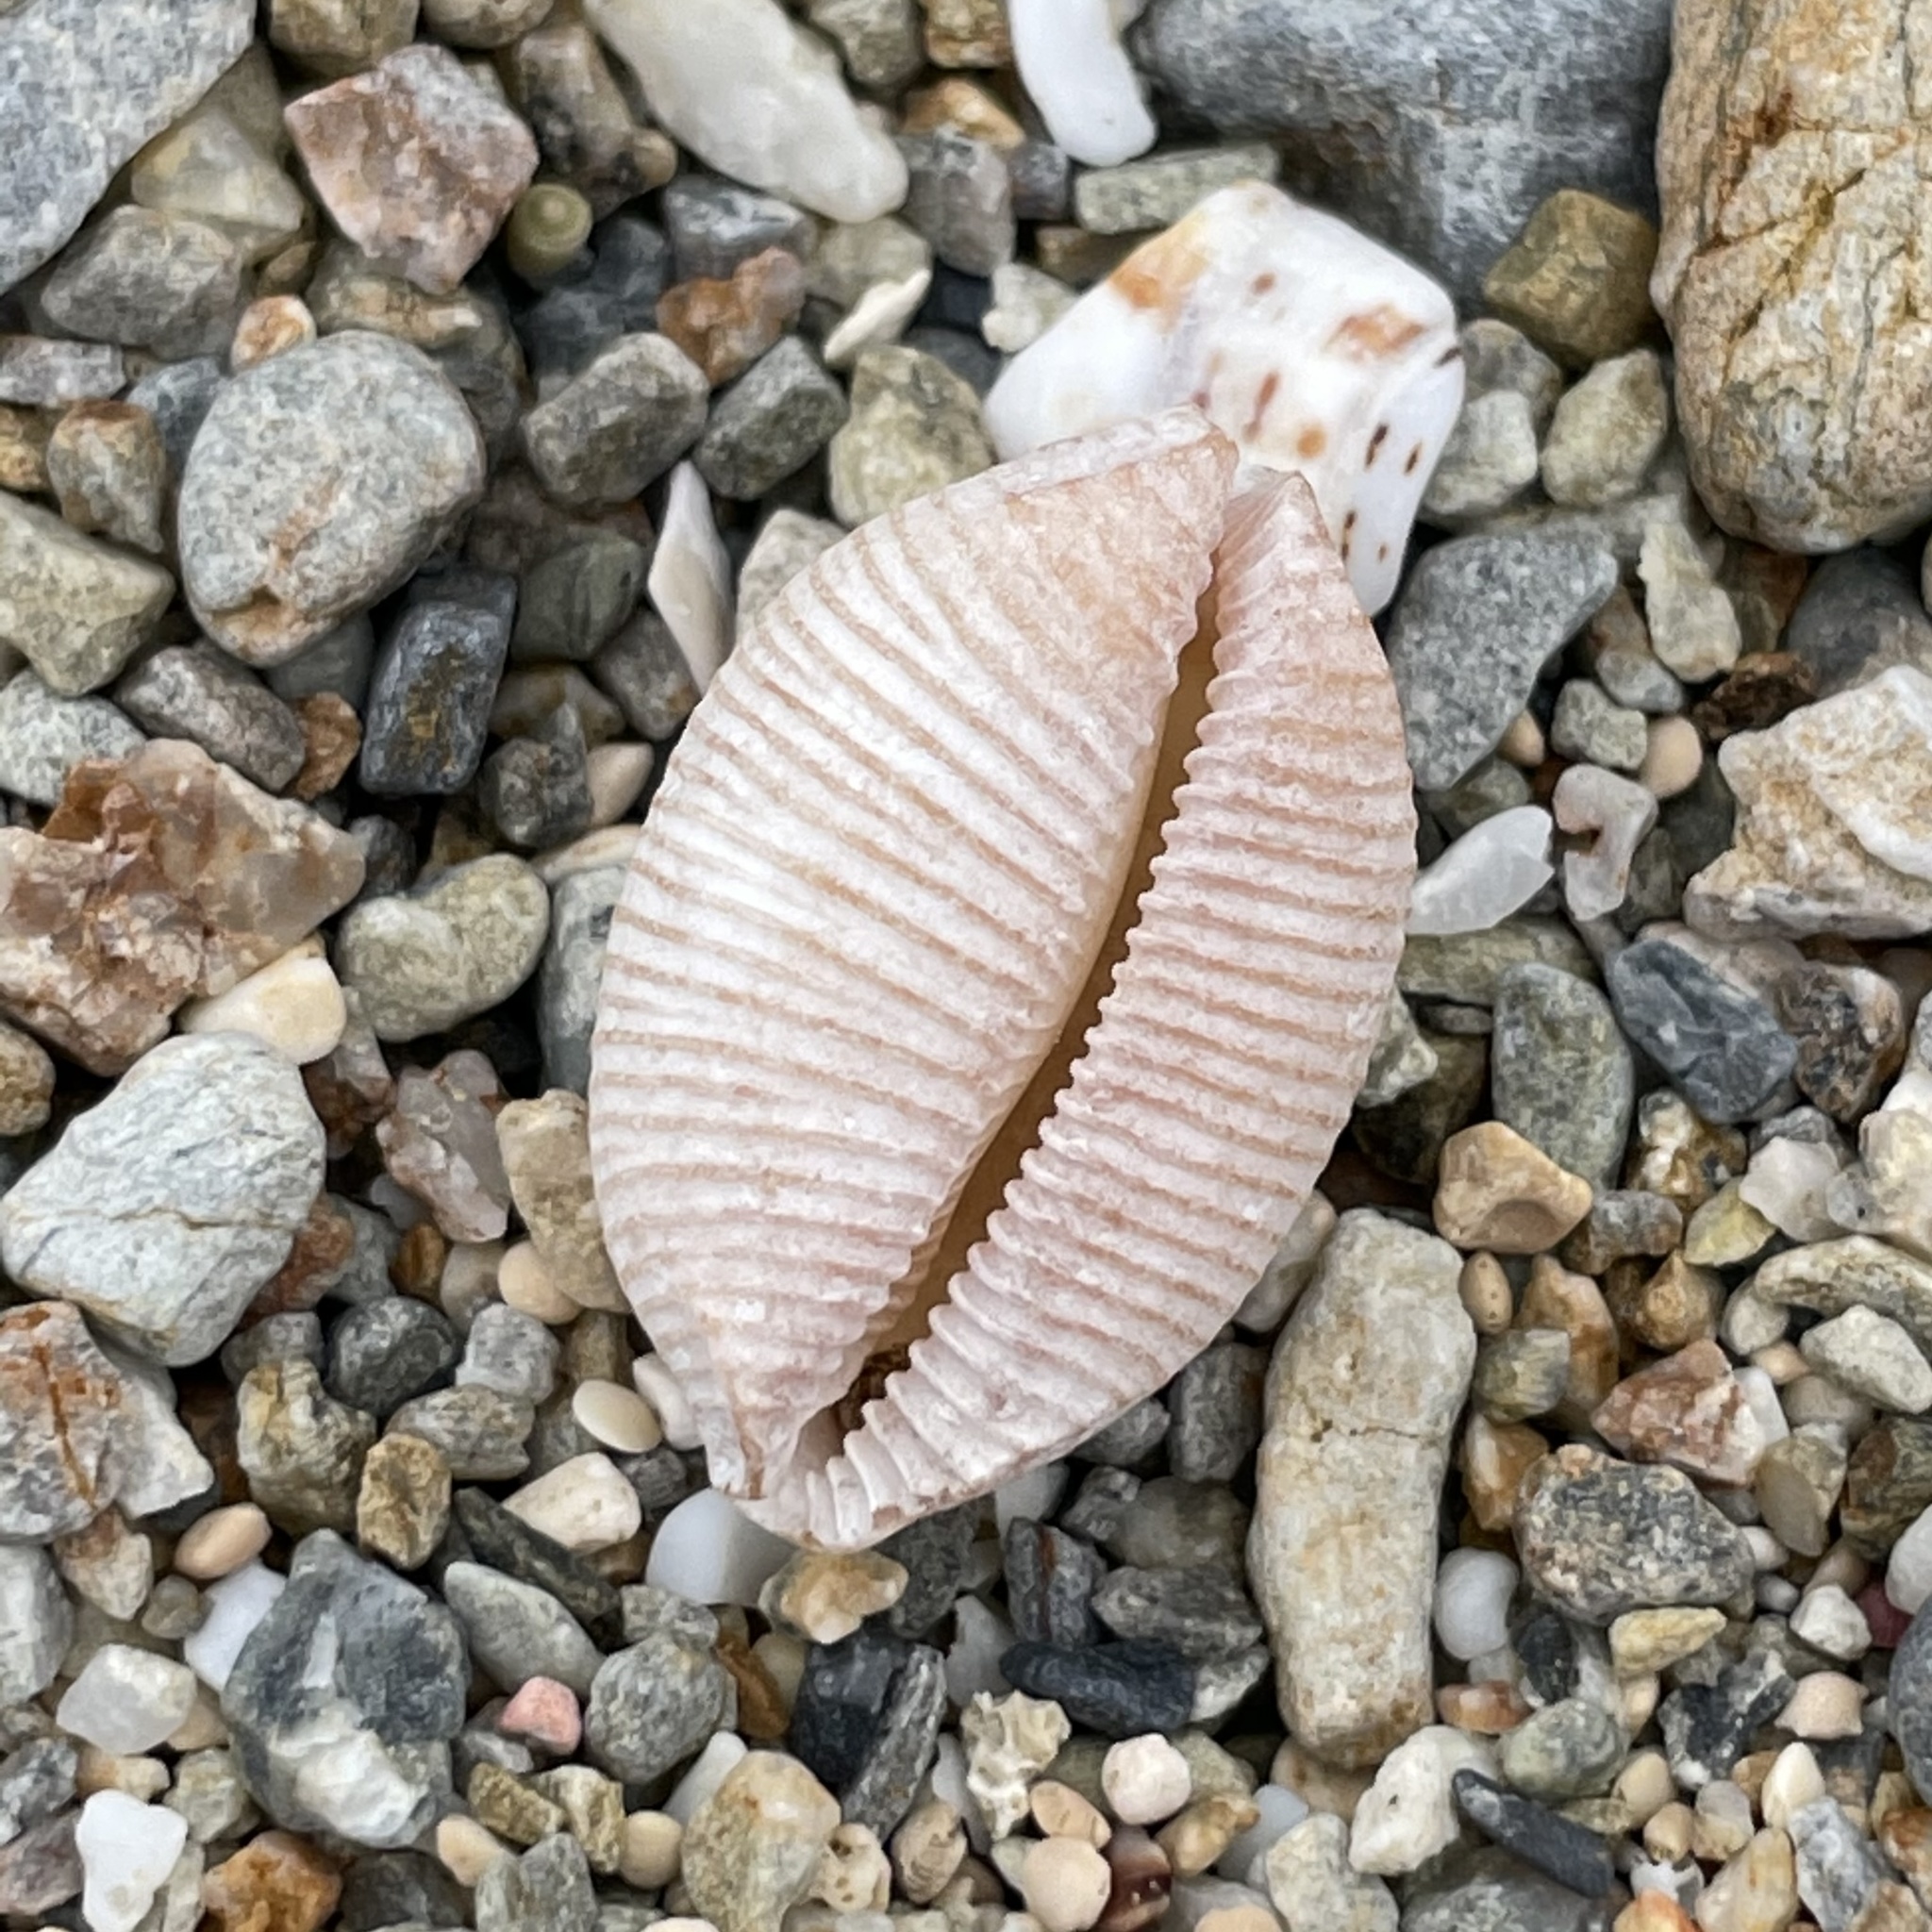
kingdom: Animalia
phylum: Mollusca
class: Gastropoda
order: Littorinimorpha
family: Cypraeidae
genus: Ipsa
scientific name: Ipsa childreni
